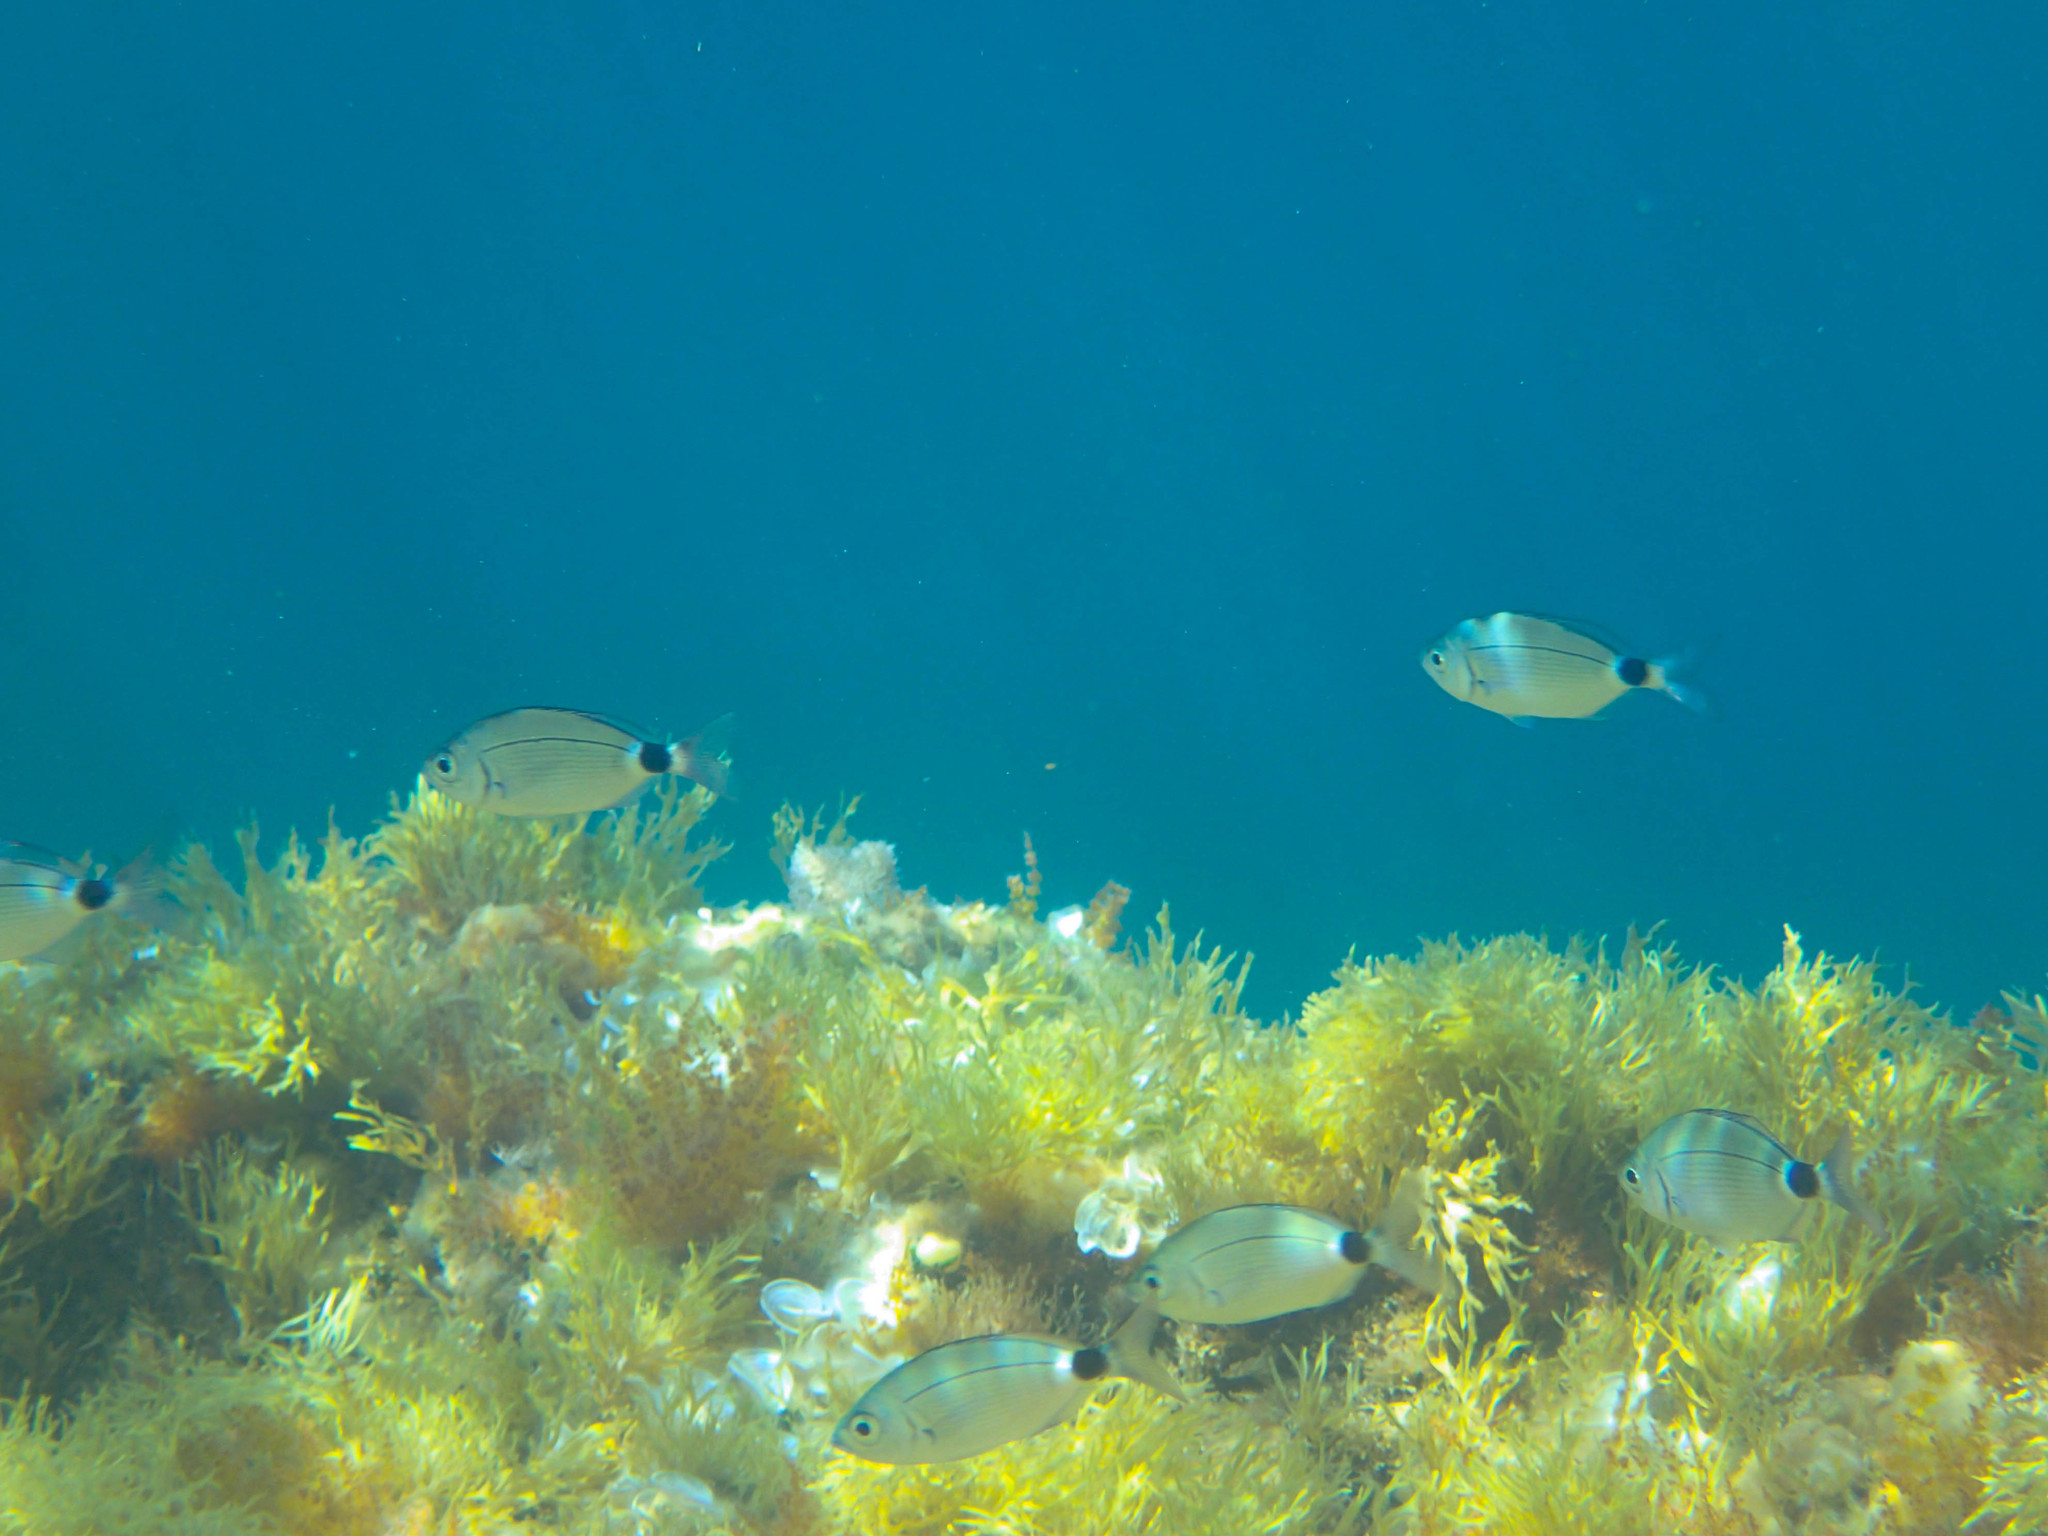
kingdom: Animalia
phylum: Chordata
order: Perciformes
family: Sparidae
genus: Oblada
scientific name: Oblada melanura
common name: Saddled seabream
